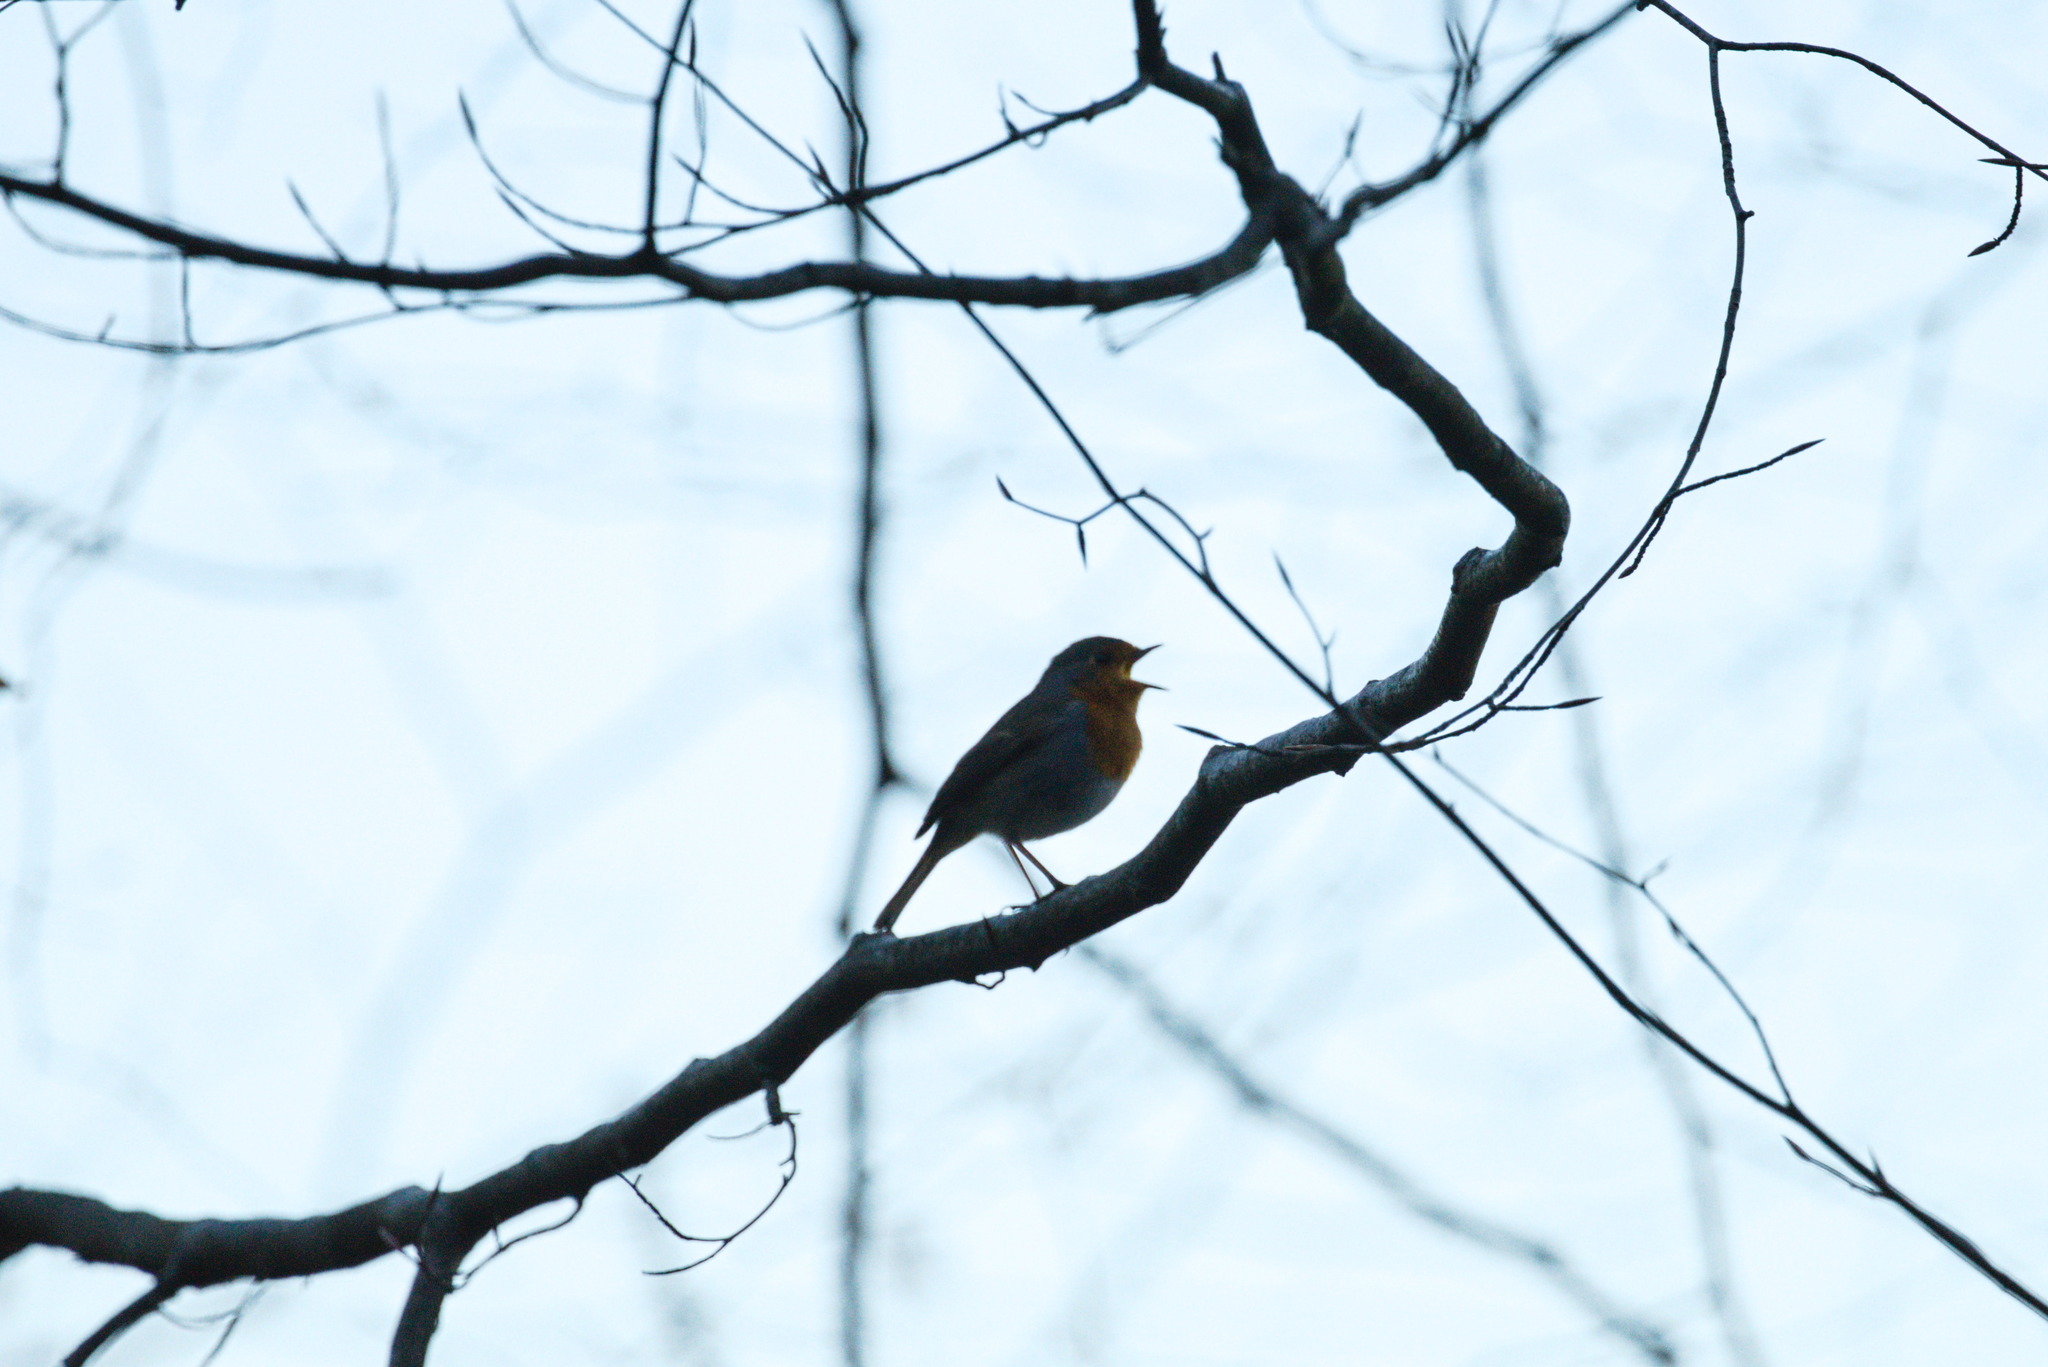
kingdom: Animalia
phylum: Chordata
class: Aves
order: Passeriformes
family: Muscicapidae
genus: Erithacus
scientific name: Erithacus rubecula
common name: European robin
